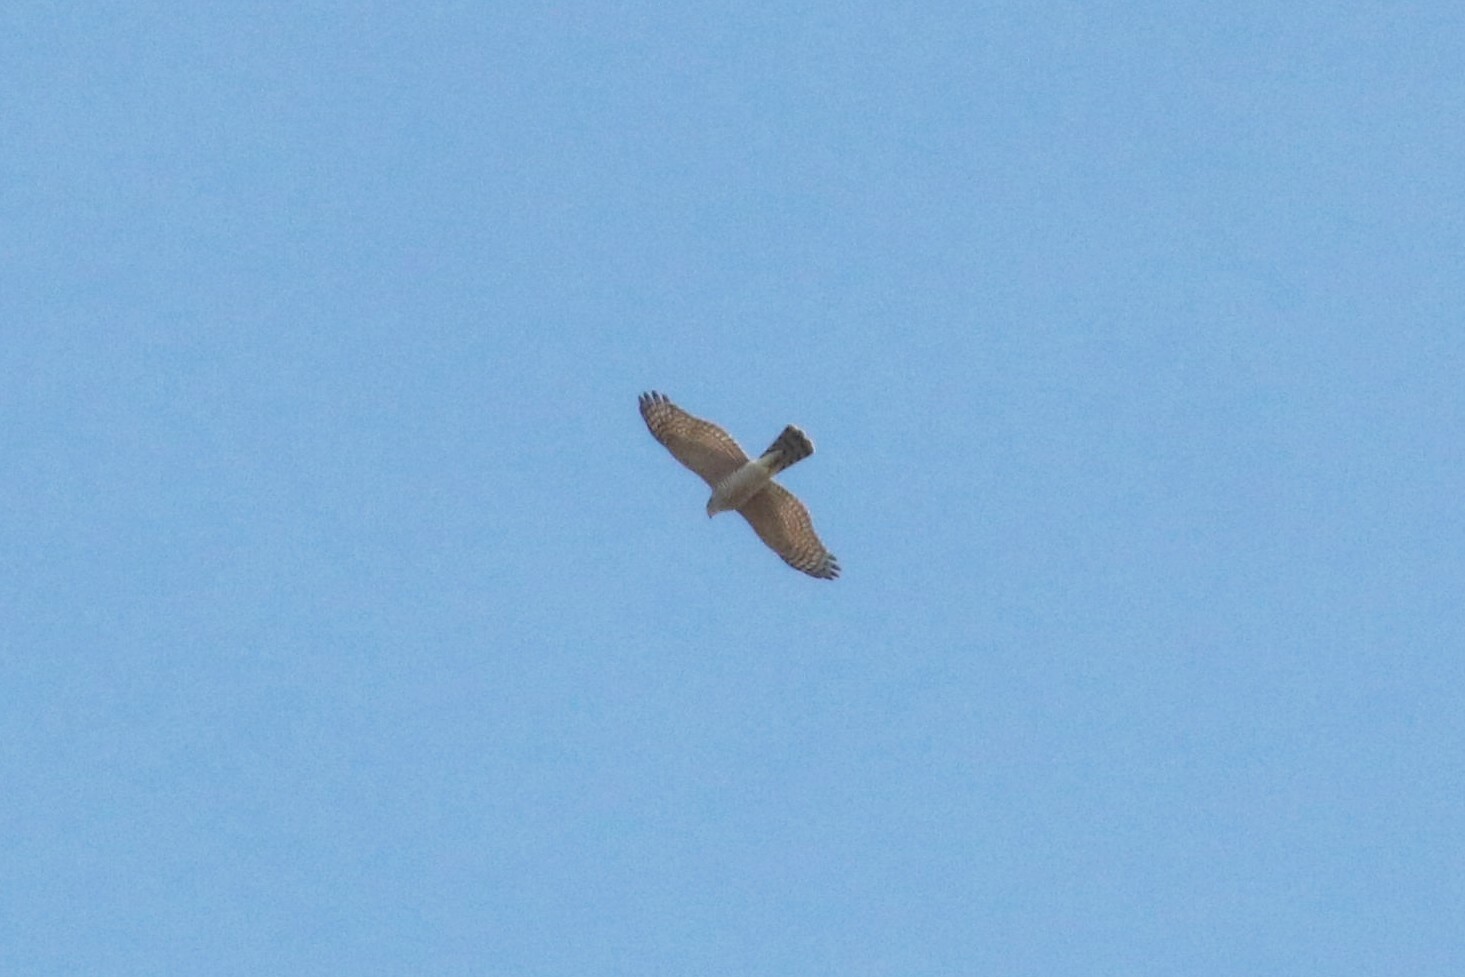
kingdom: Animalia
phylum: Chordata
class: Aves
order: Accipitriformes
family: Accipitridae
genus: Accipiter
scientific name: Accipiter nisus
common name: Eurasian sparrowhawk
